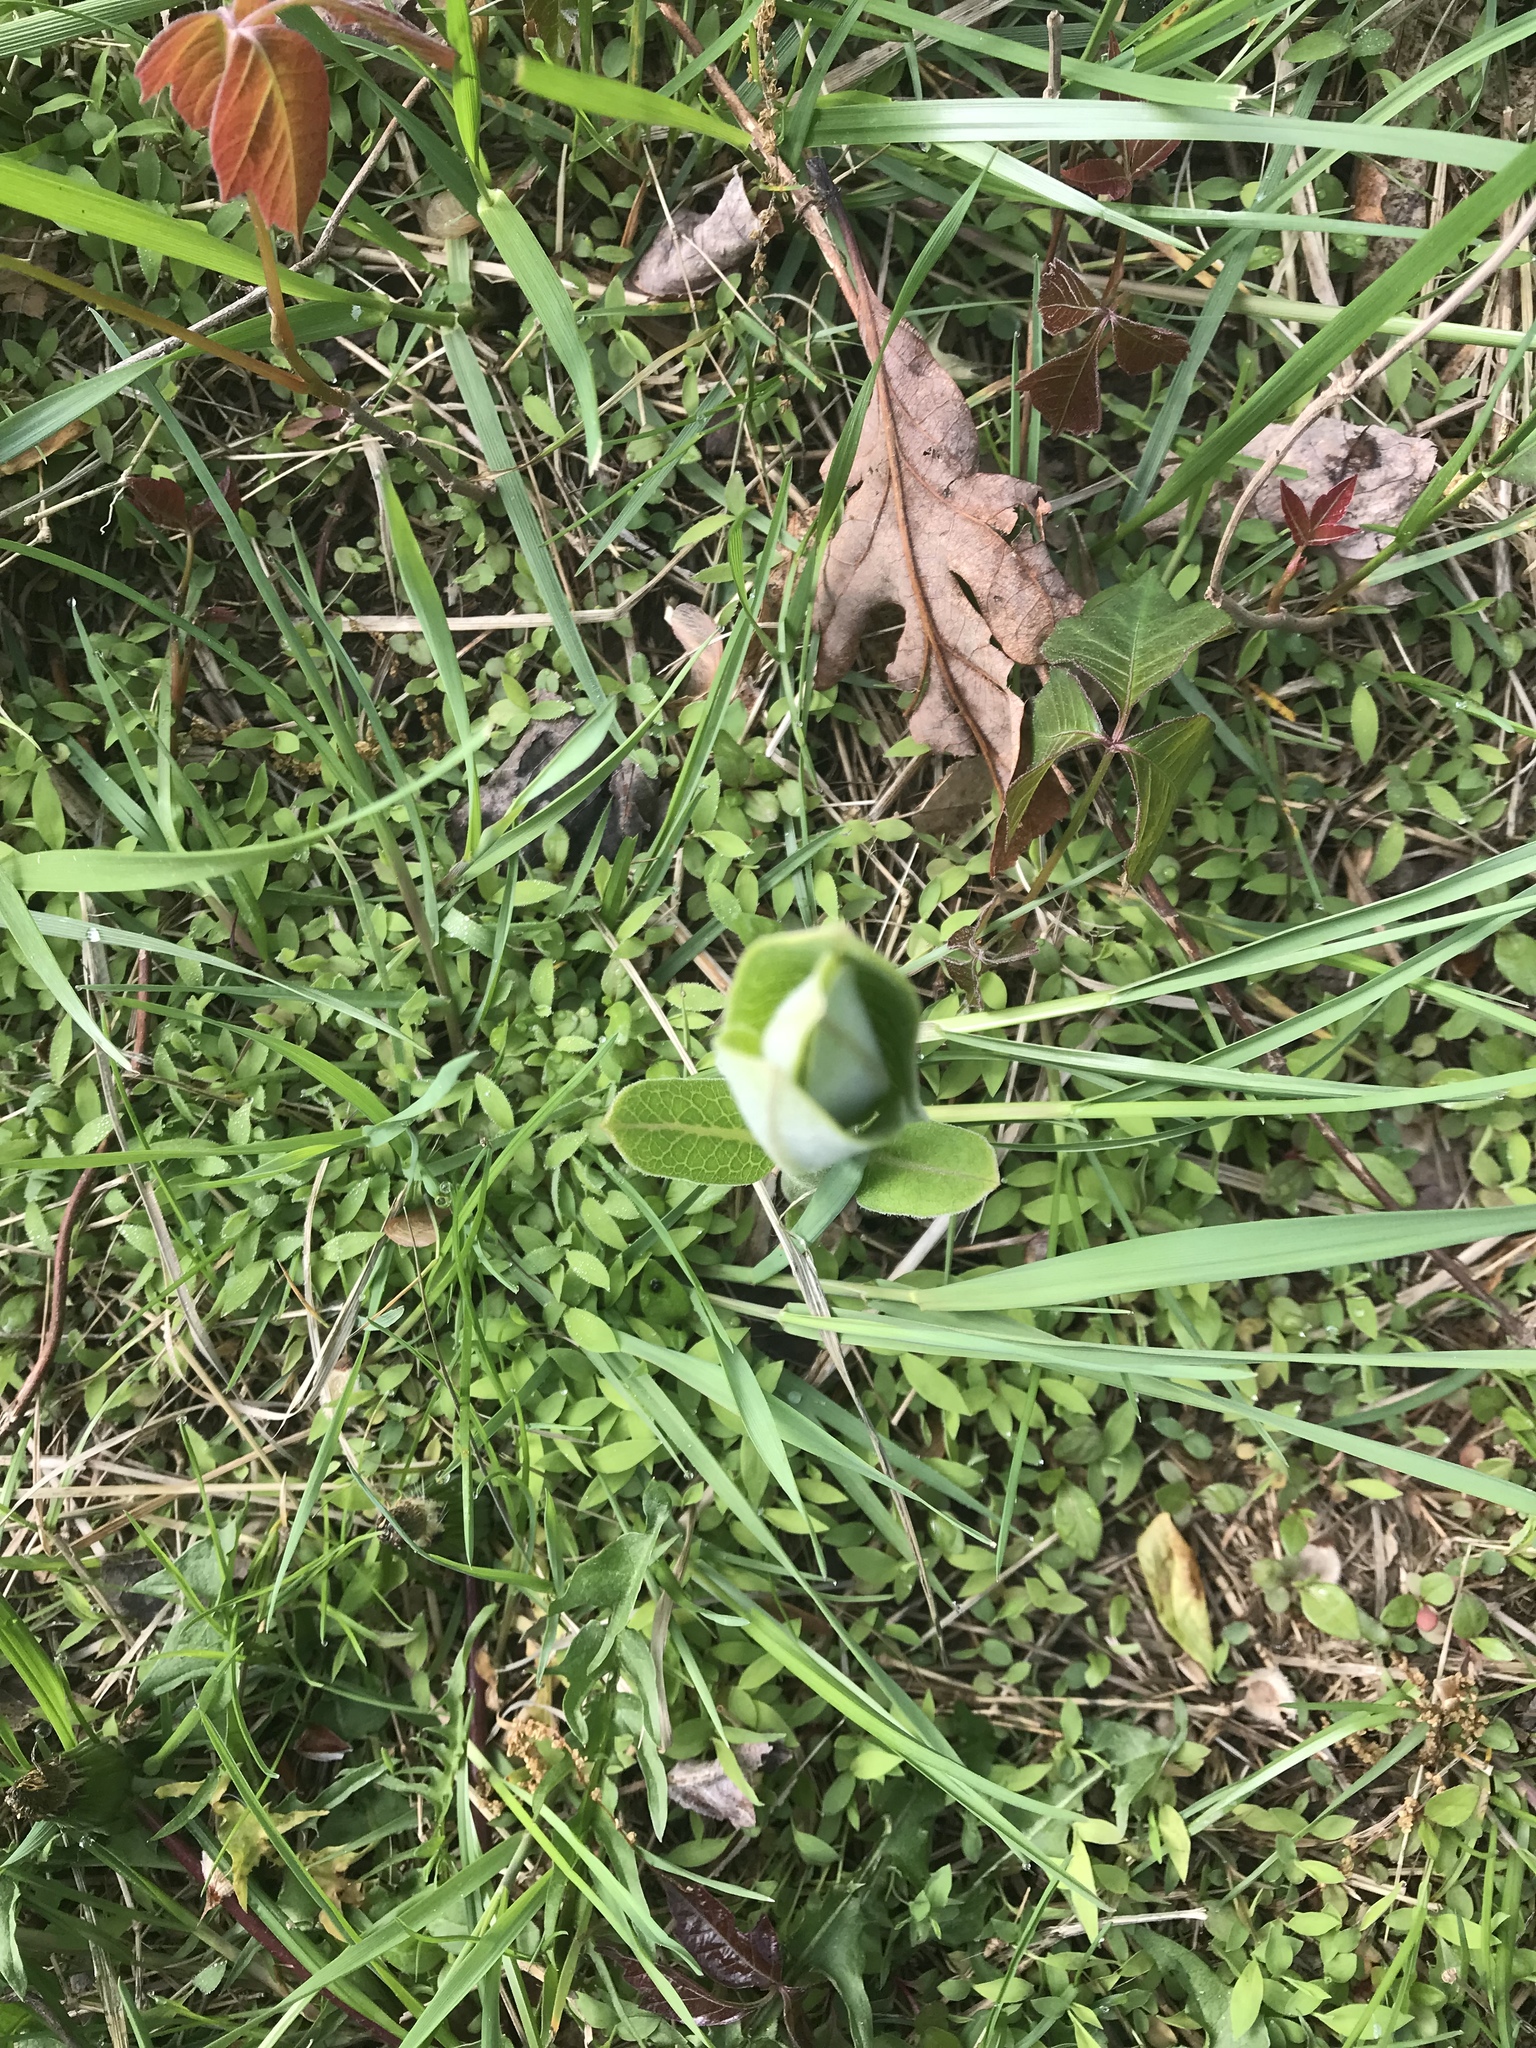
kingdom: Plantae
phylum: Tracheophyta
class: Magnoliopsida
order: Gentianales
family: Apocynaceae
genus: Asclepias
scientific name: Asclepias syriaca
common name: Common milkweed
